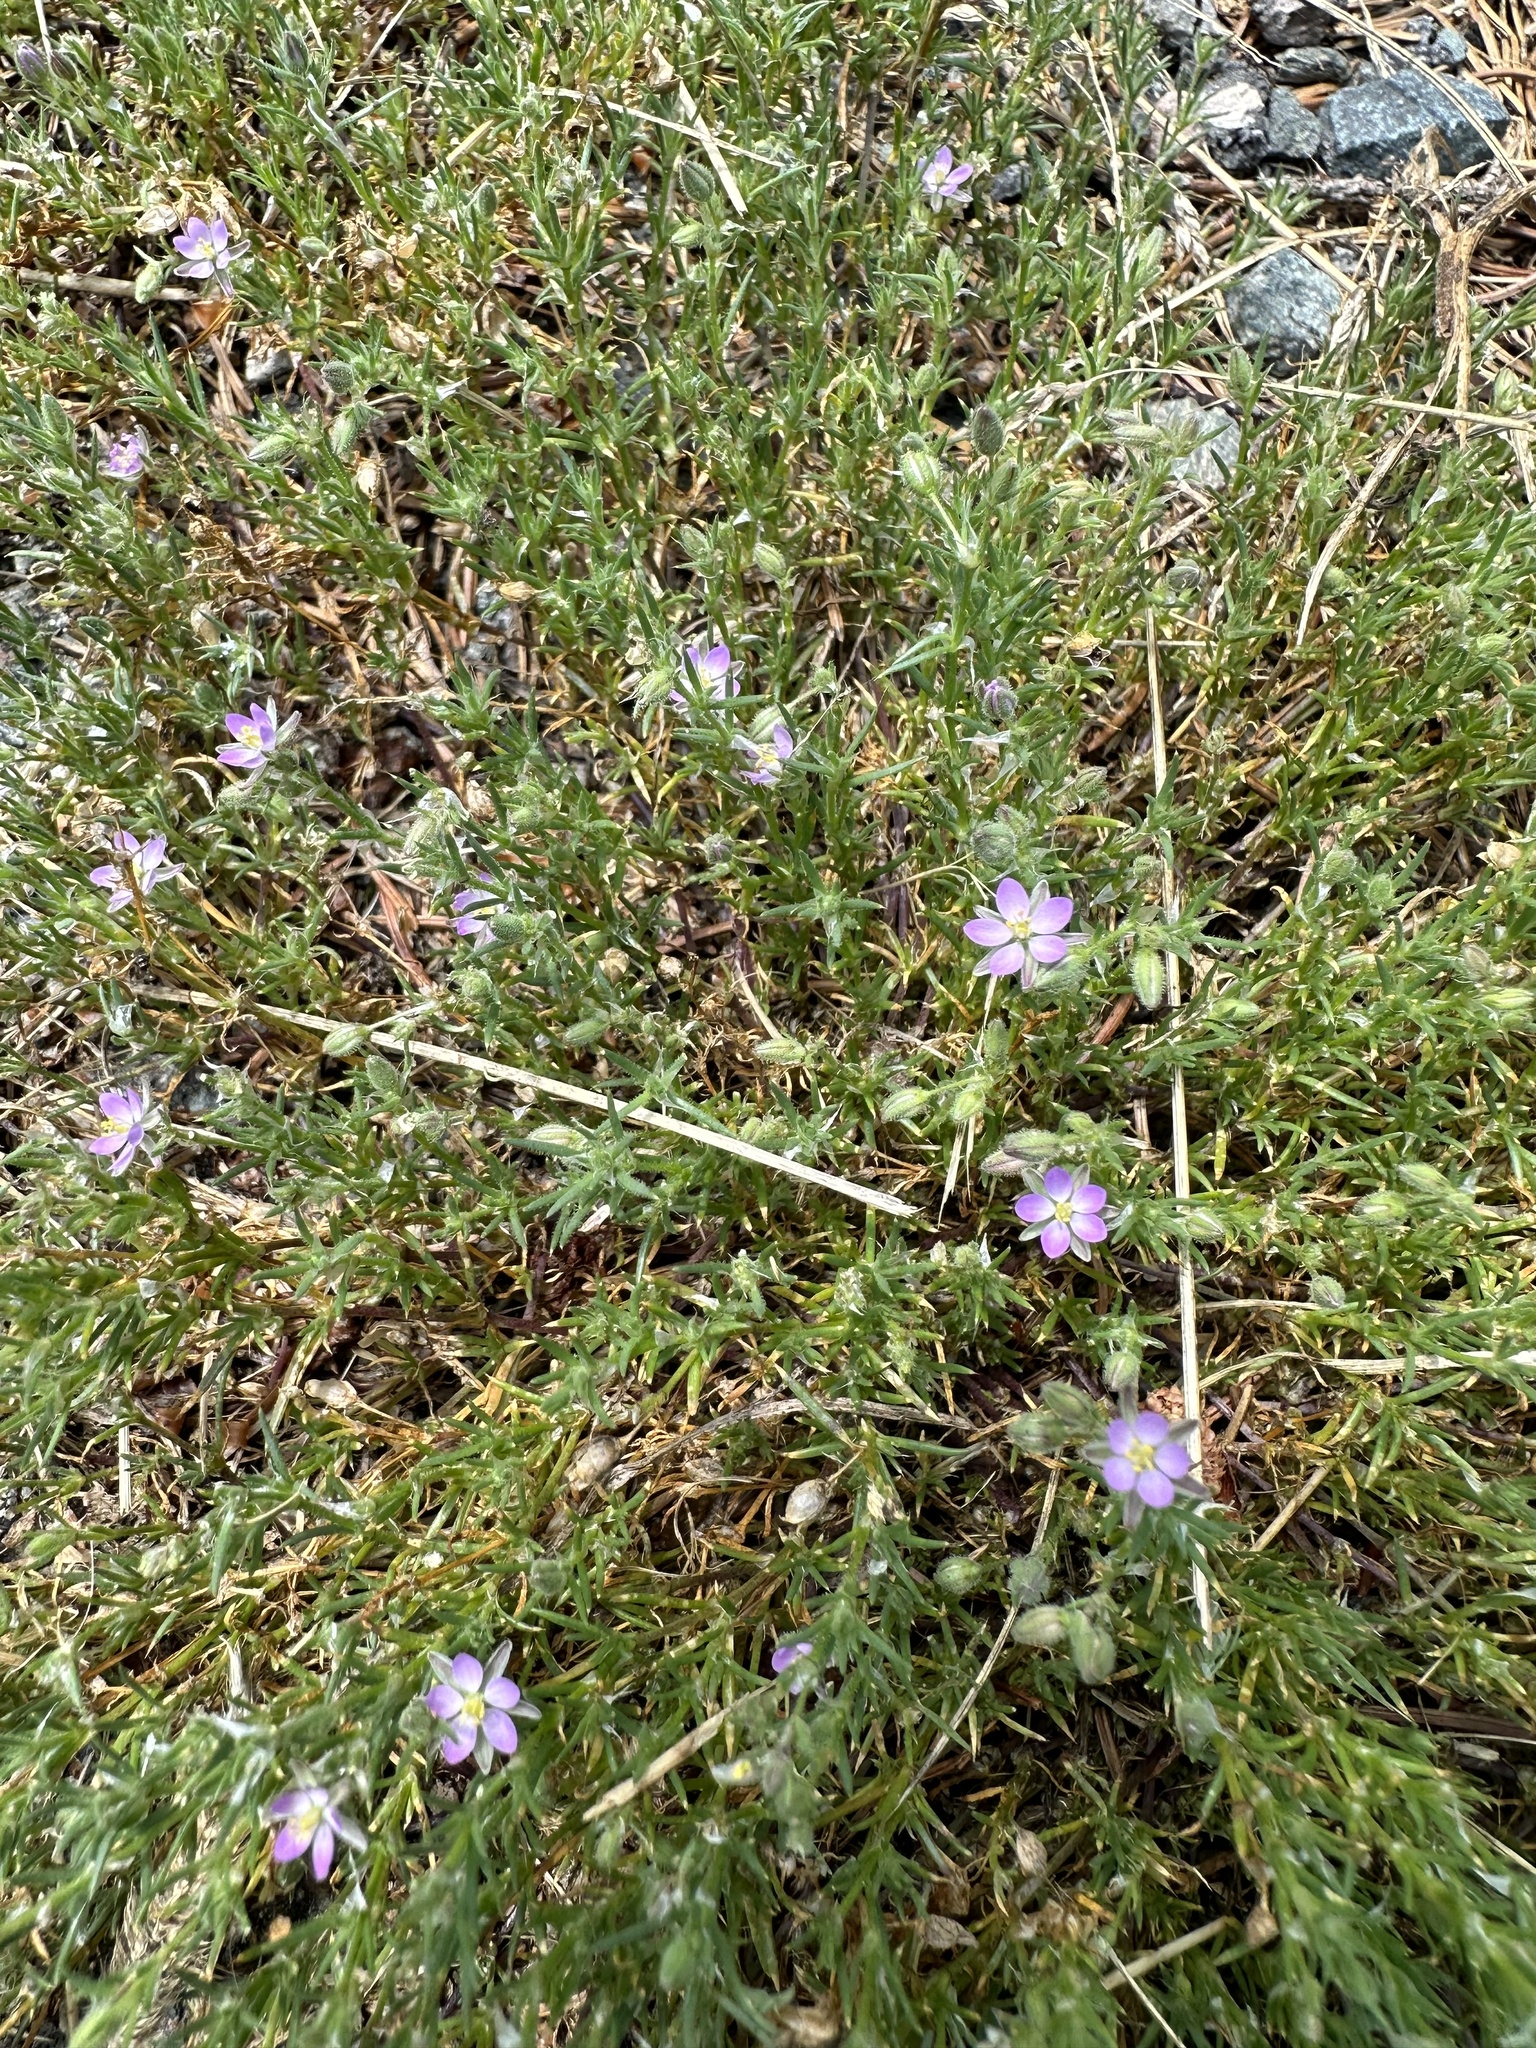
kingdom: Plantae
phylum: Tracheophyta
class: Magnoliopsida
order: Caryophyllales
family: Caryophyllaceae
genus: Spergularia
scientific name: Spergularia rubra
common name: Red sand-spurrey
